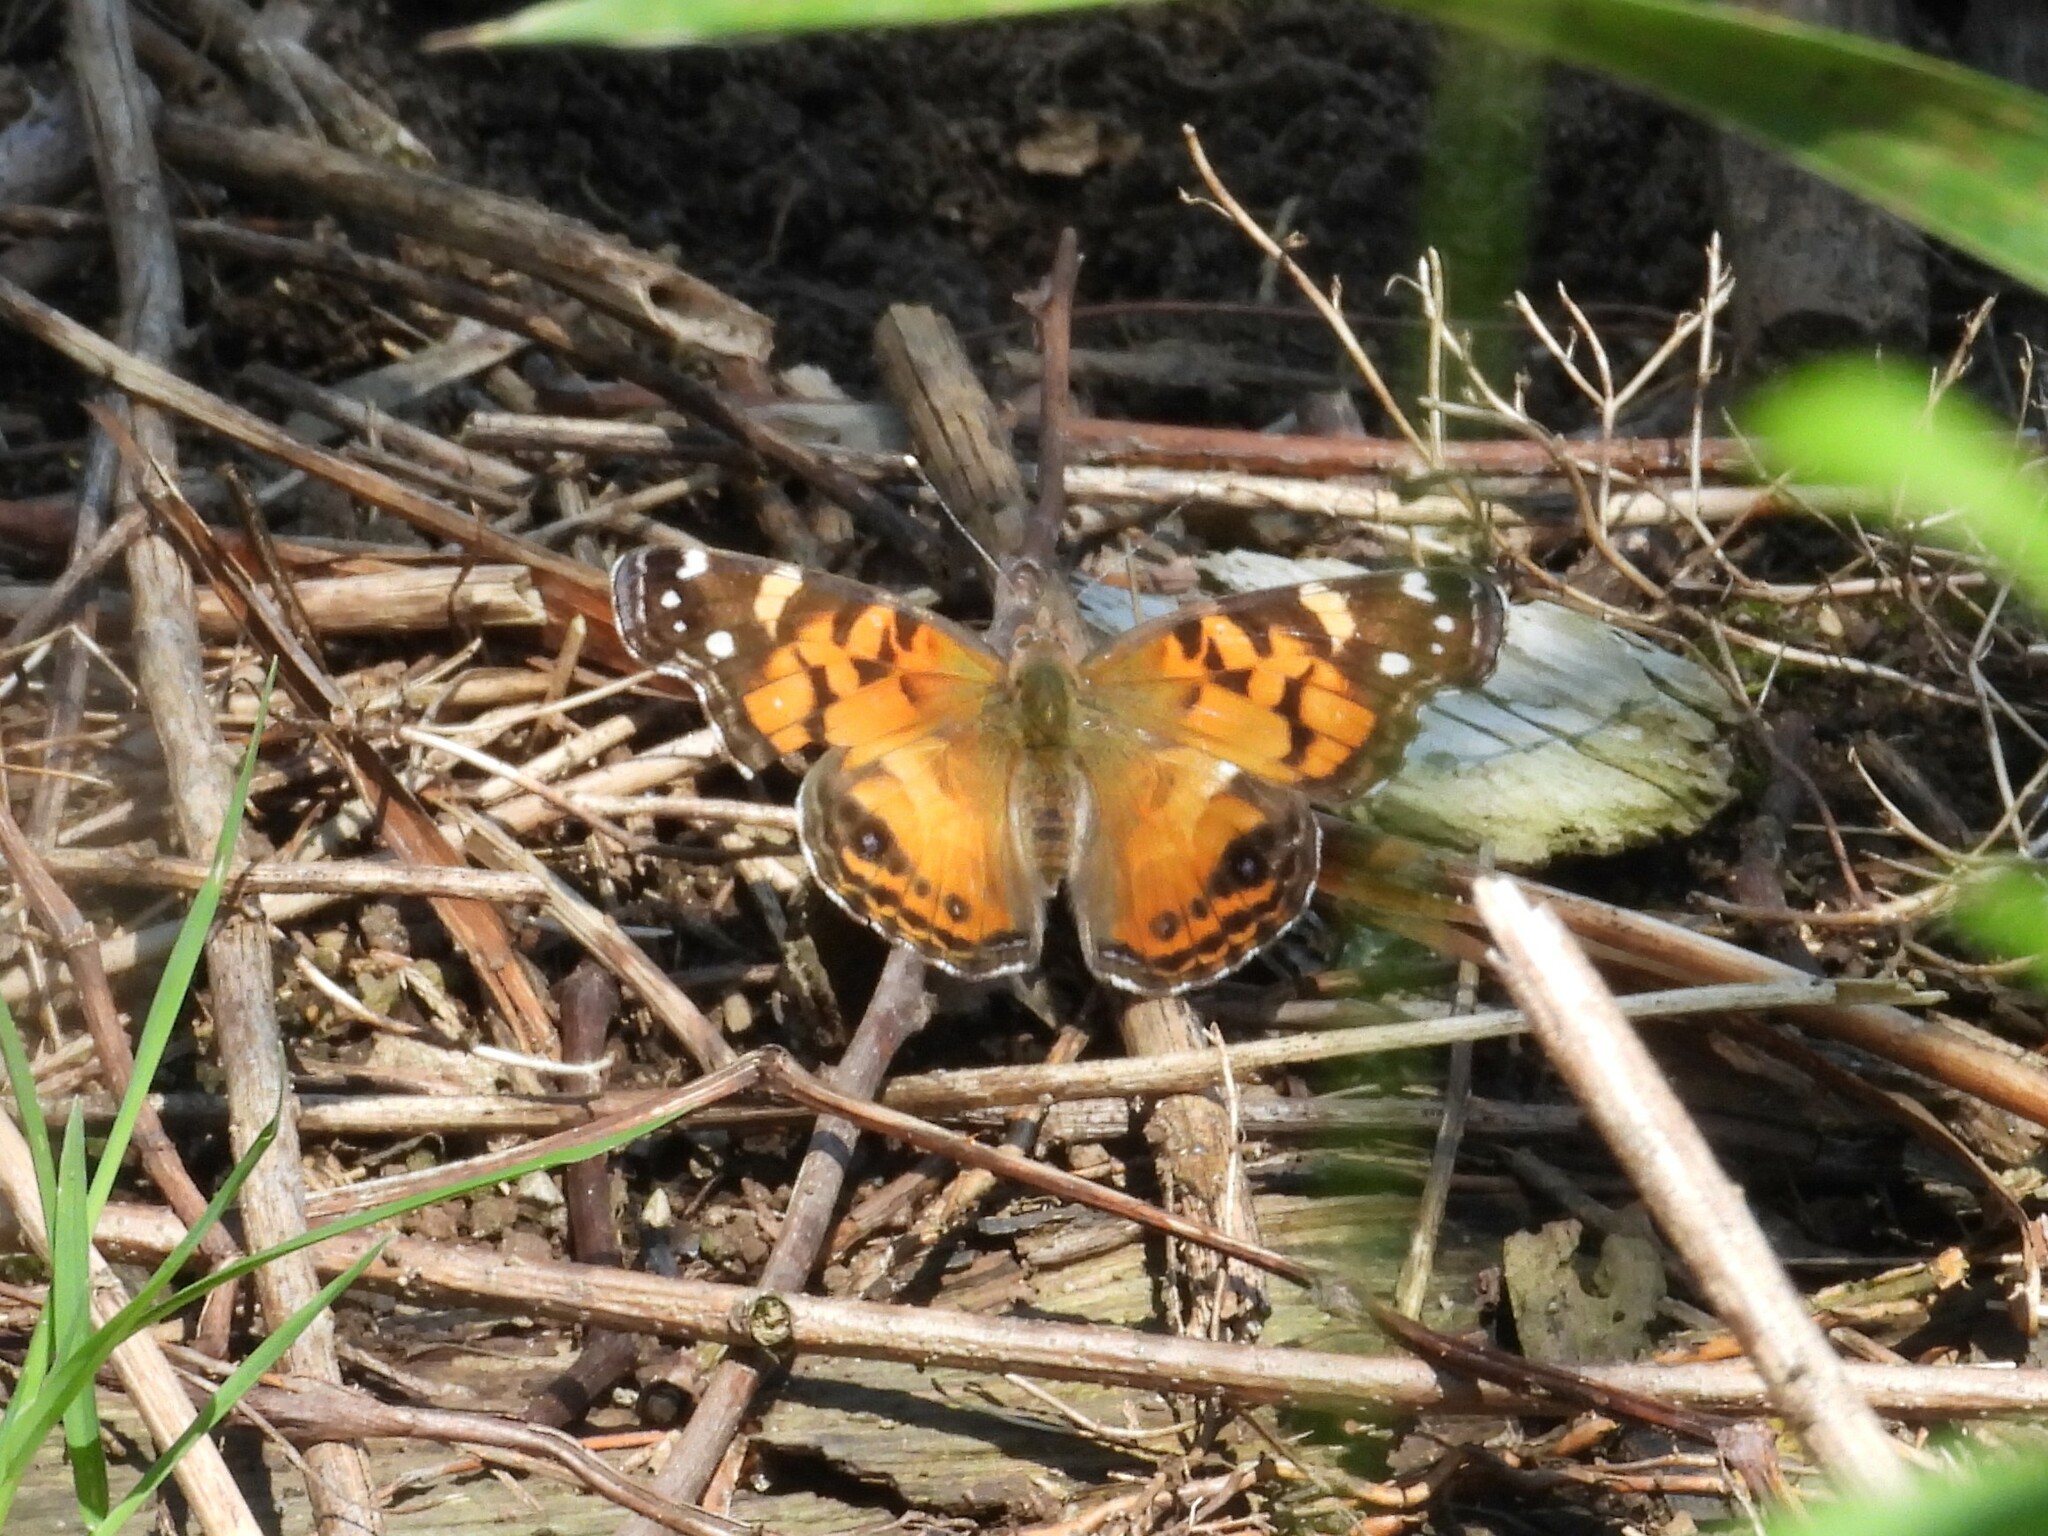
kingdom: Animalia
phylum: Arthropoda
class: Insecta
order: Lepidoptera
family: Nymphalidae
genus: Vanessa
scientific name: Vanessa virginiensis
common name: American lady
